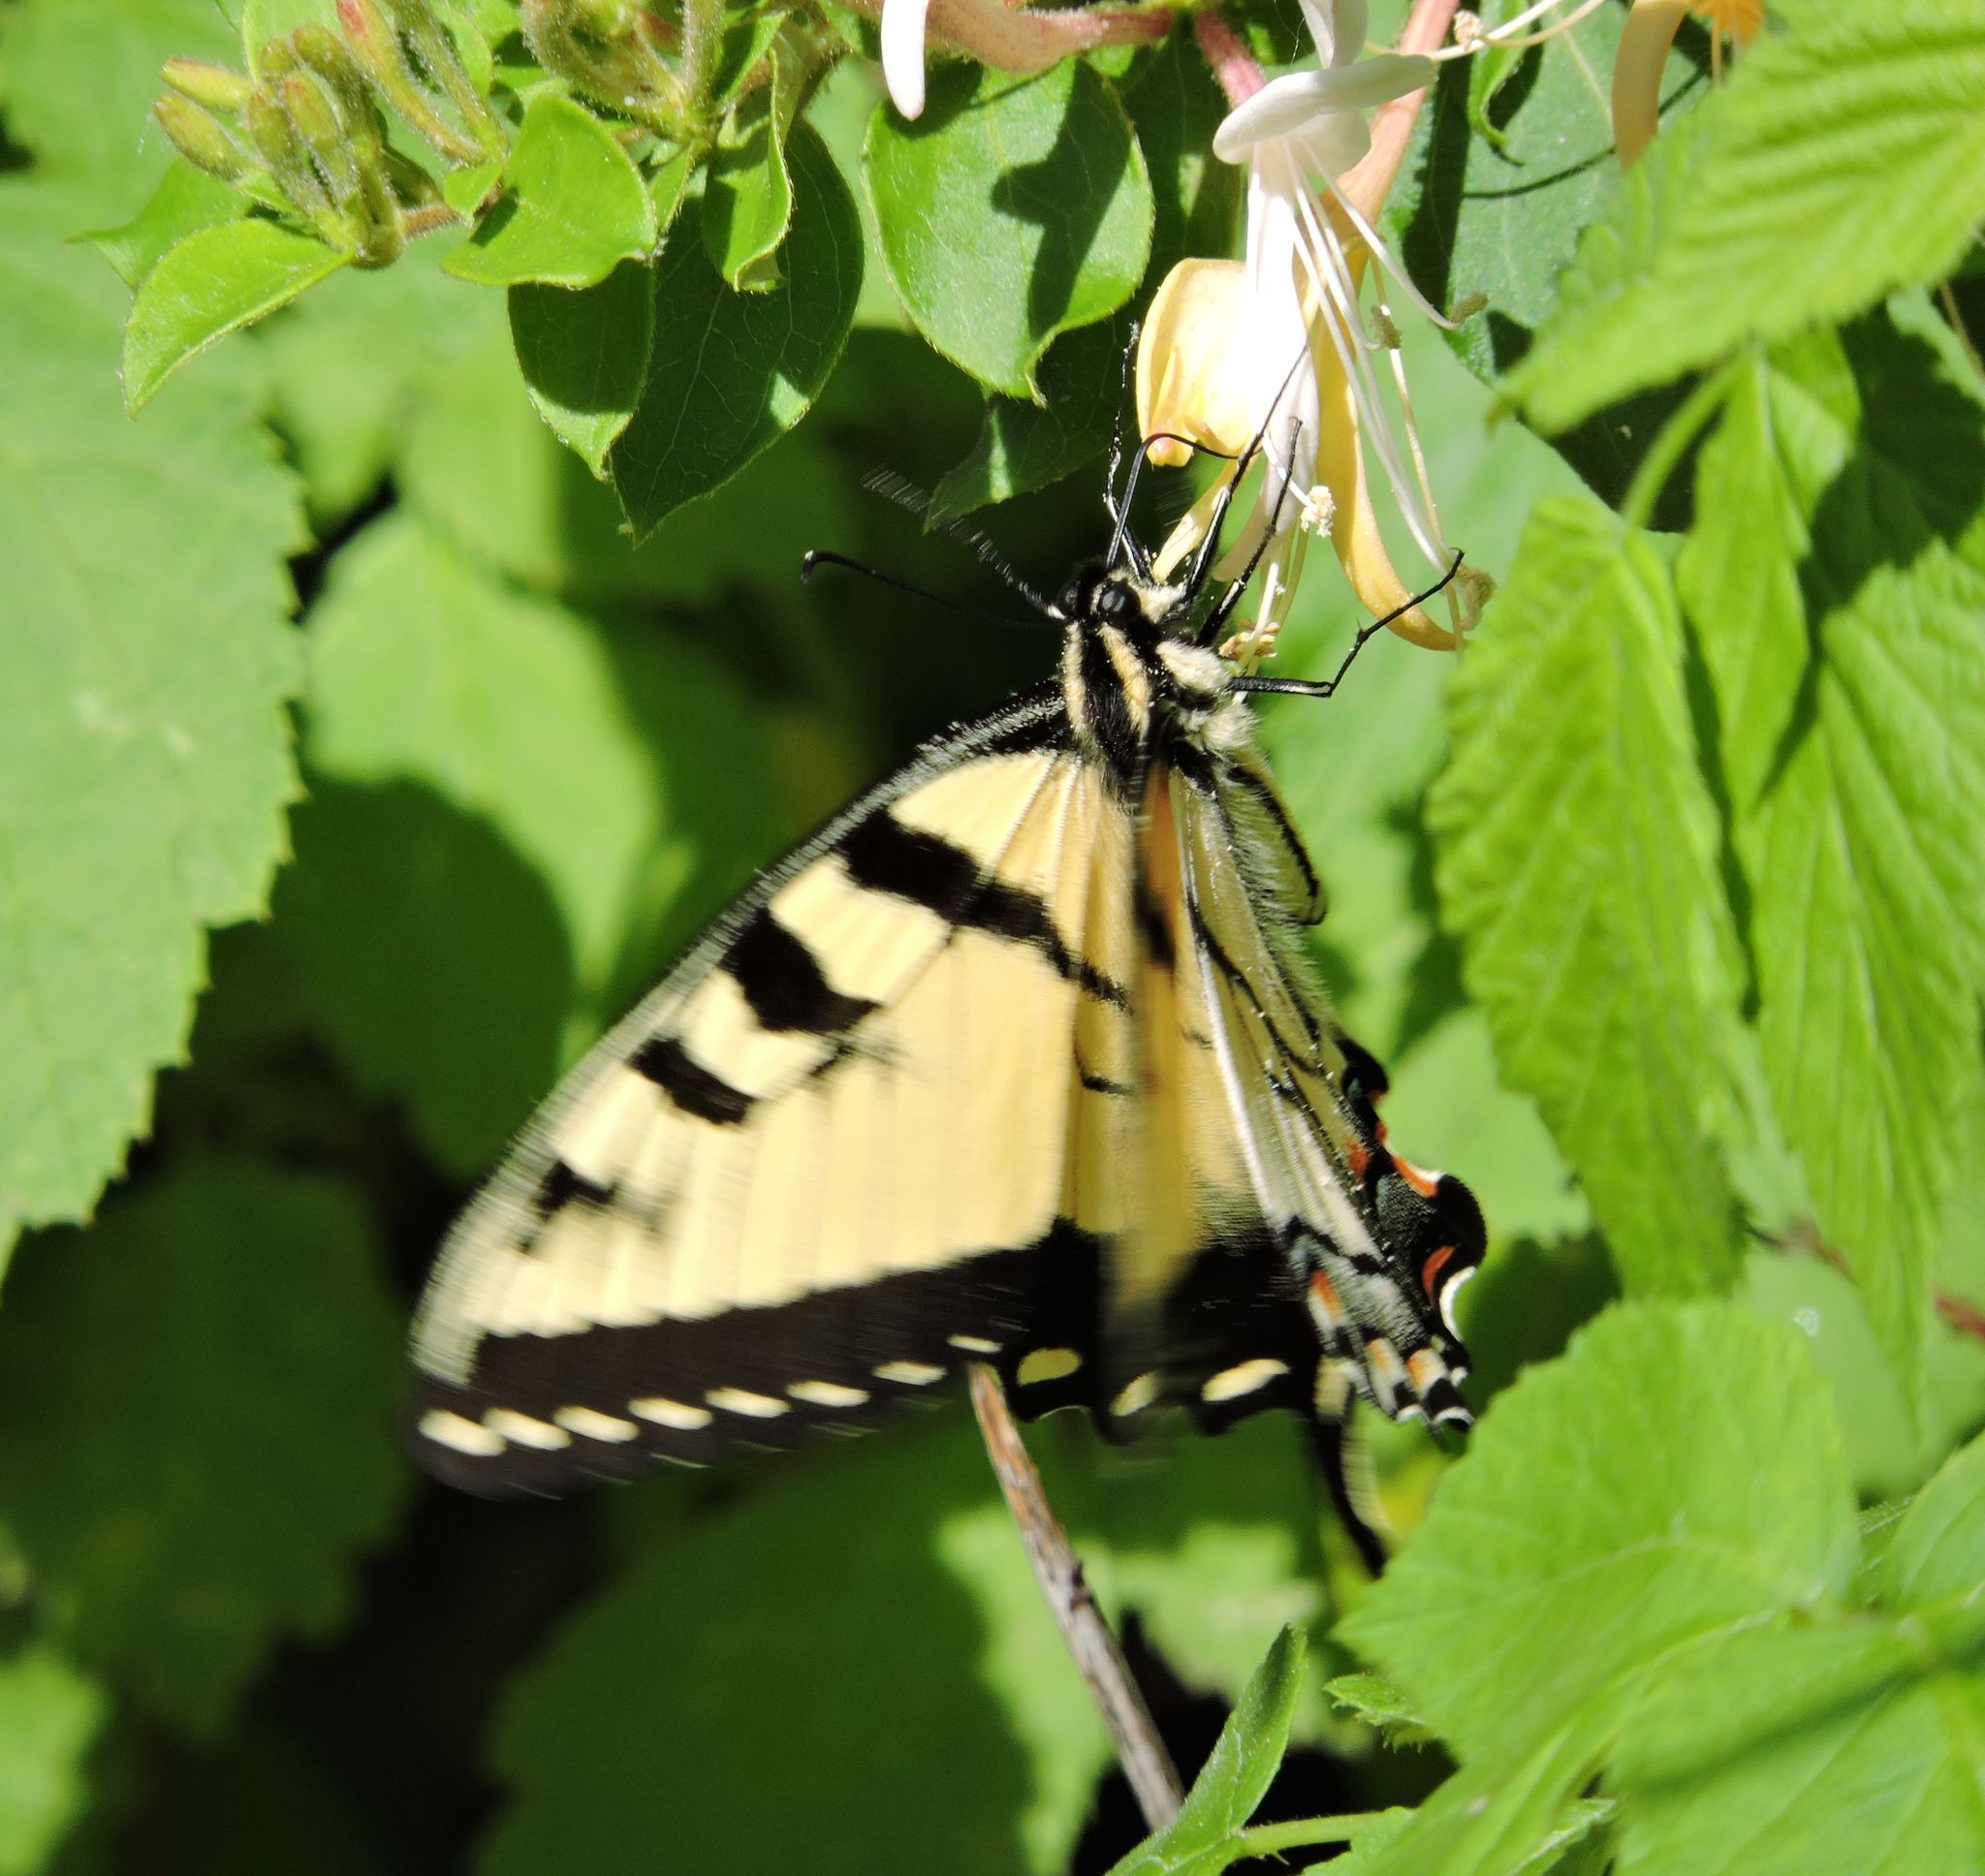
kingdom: Animalia
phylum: Arthropoda
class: Insecta
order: Lepidoptera
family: Papilionidae
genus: Papilio
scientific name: Papilio glaucus
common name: Tiger swallowtail
